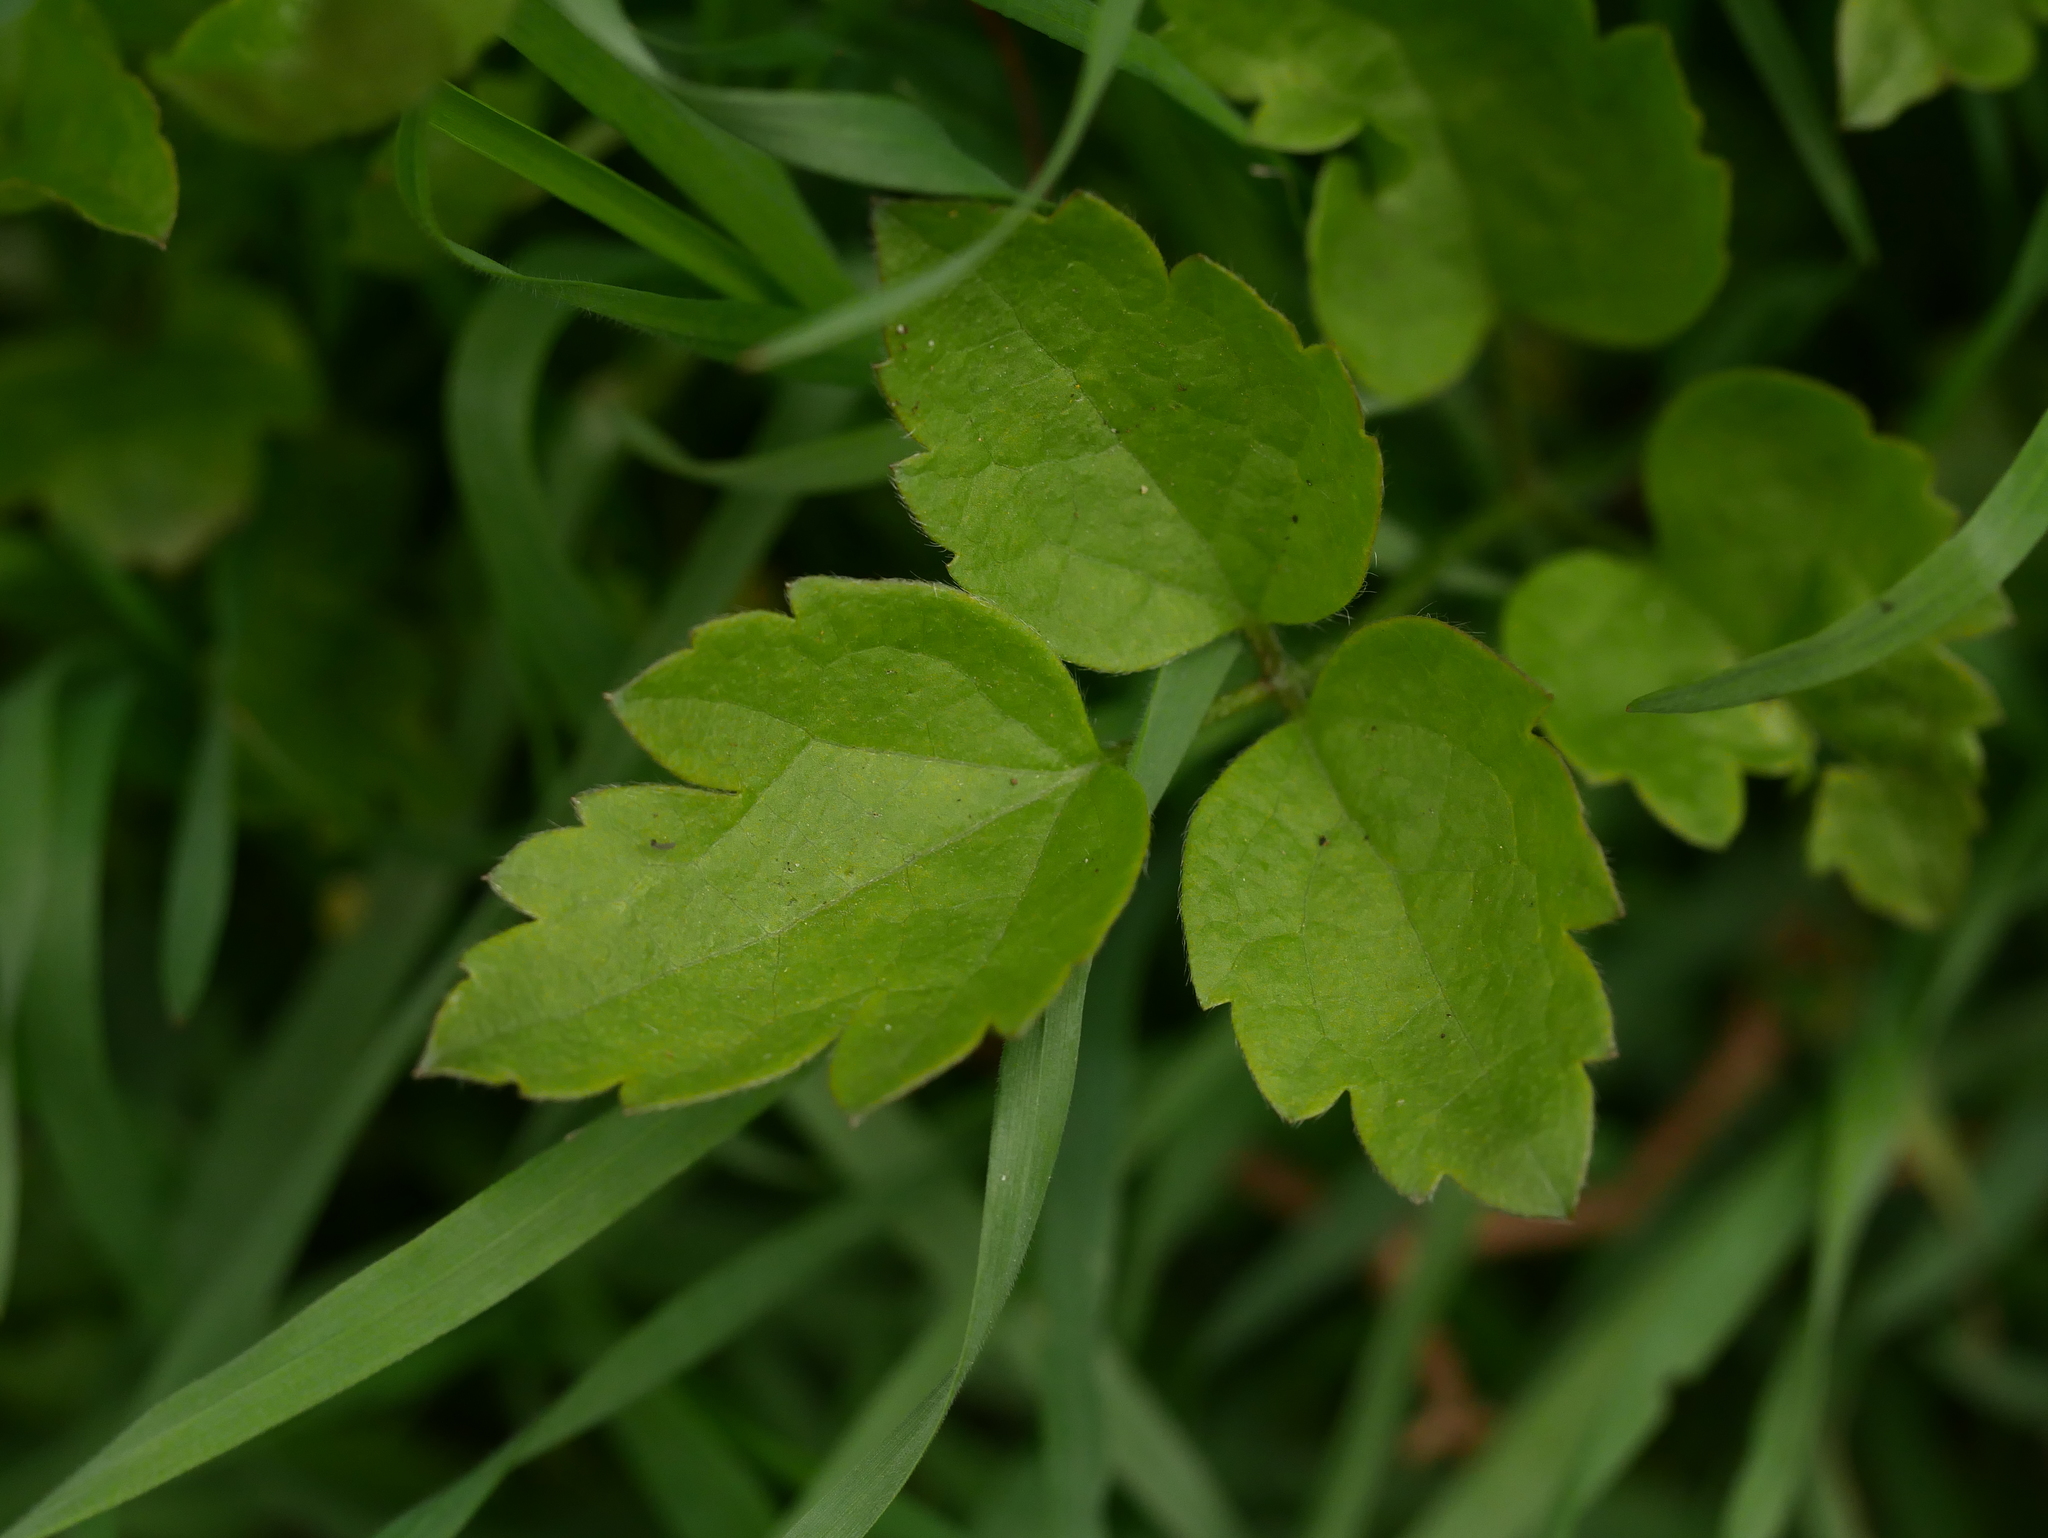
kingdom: Plantae
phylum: Tracheophyta
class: Magnoliopsida
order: Ranunculales
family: Ranunculaceae
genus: Clematis
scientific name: Clematis vitalba
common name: Evergreen clematis
